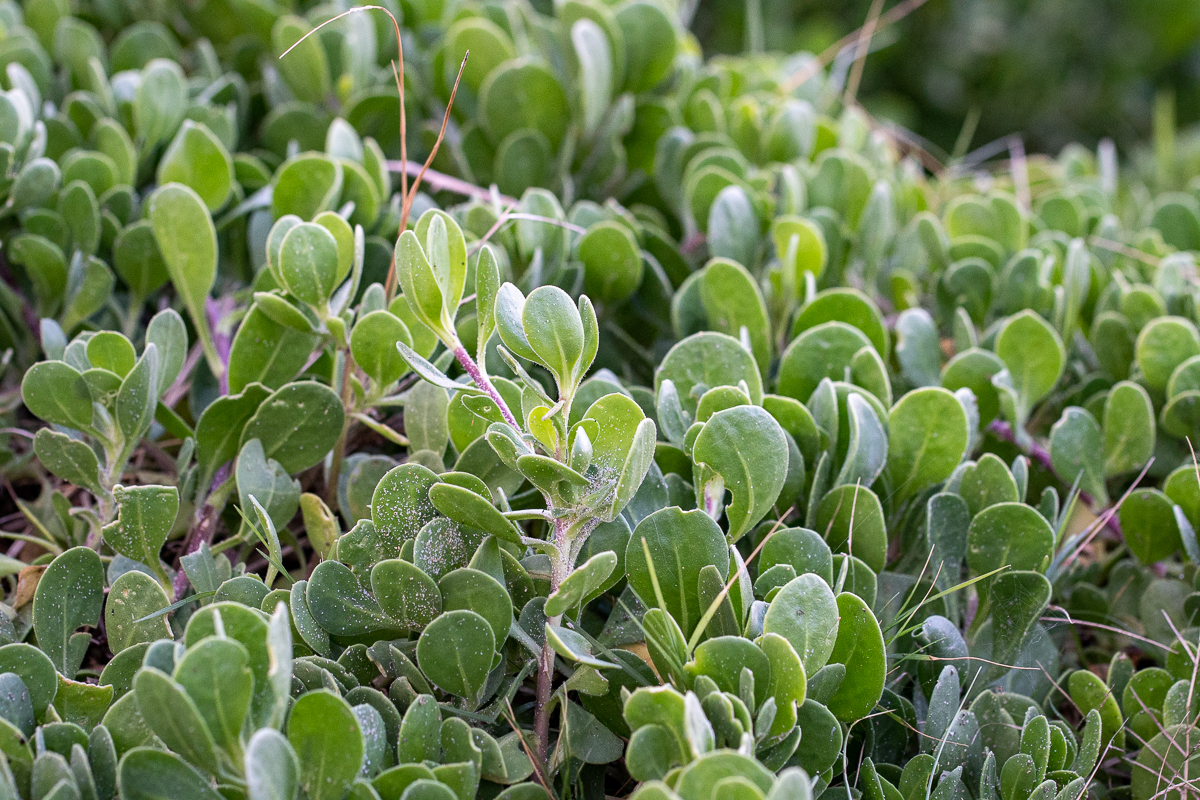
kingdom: Plantae
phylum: Tracheophyta
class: Magnoliopsida
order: Asterales
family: Asteraceae
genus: Dimorphotheca
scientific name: Dimorphotheca fruticosa
